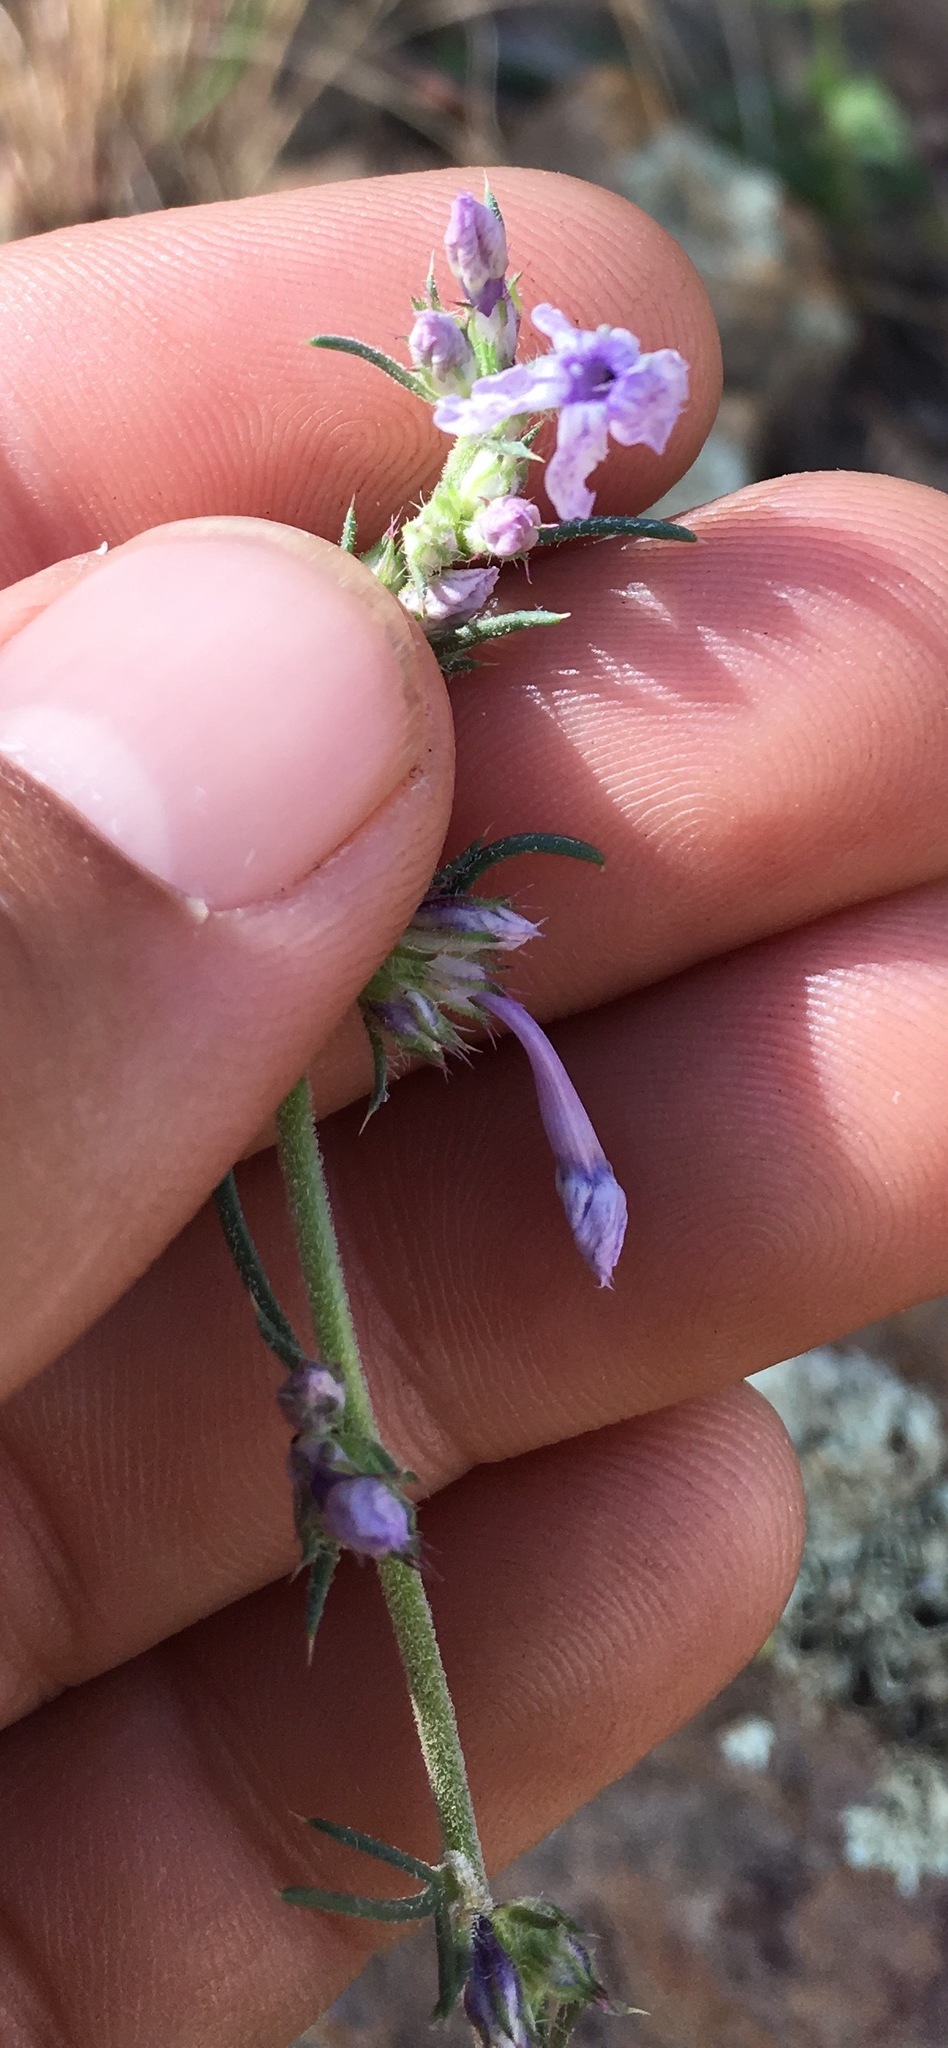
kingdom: Plantae
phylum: Tracheophyta
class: Magnoliopsida
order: Ericales
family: Polemoniaceae
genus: Ipomopsis
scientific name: Ipomopsis macombii
